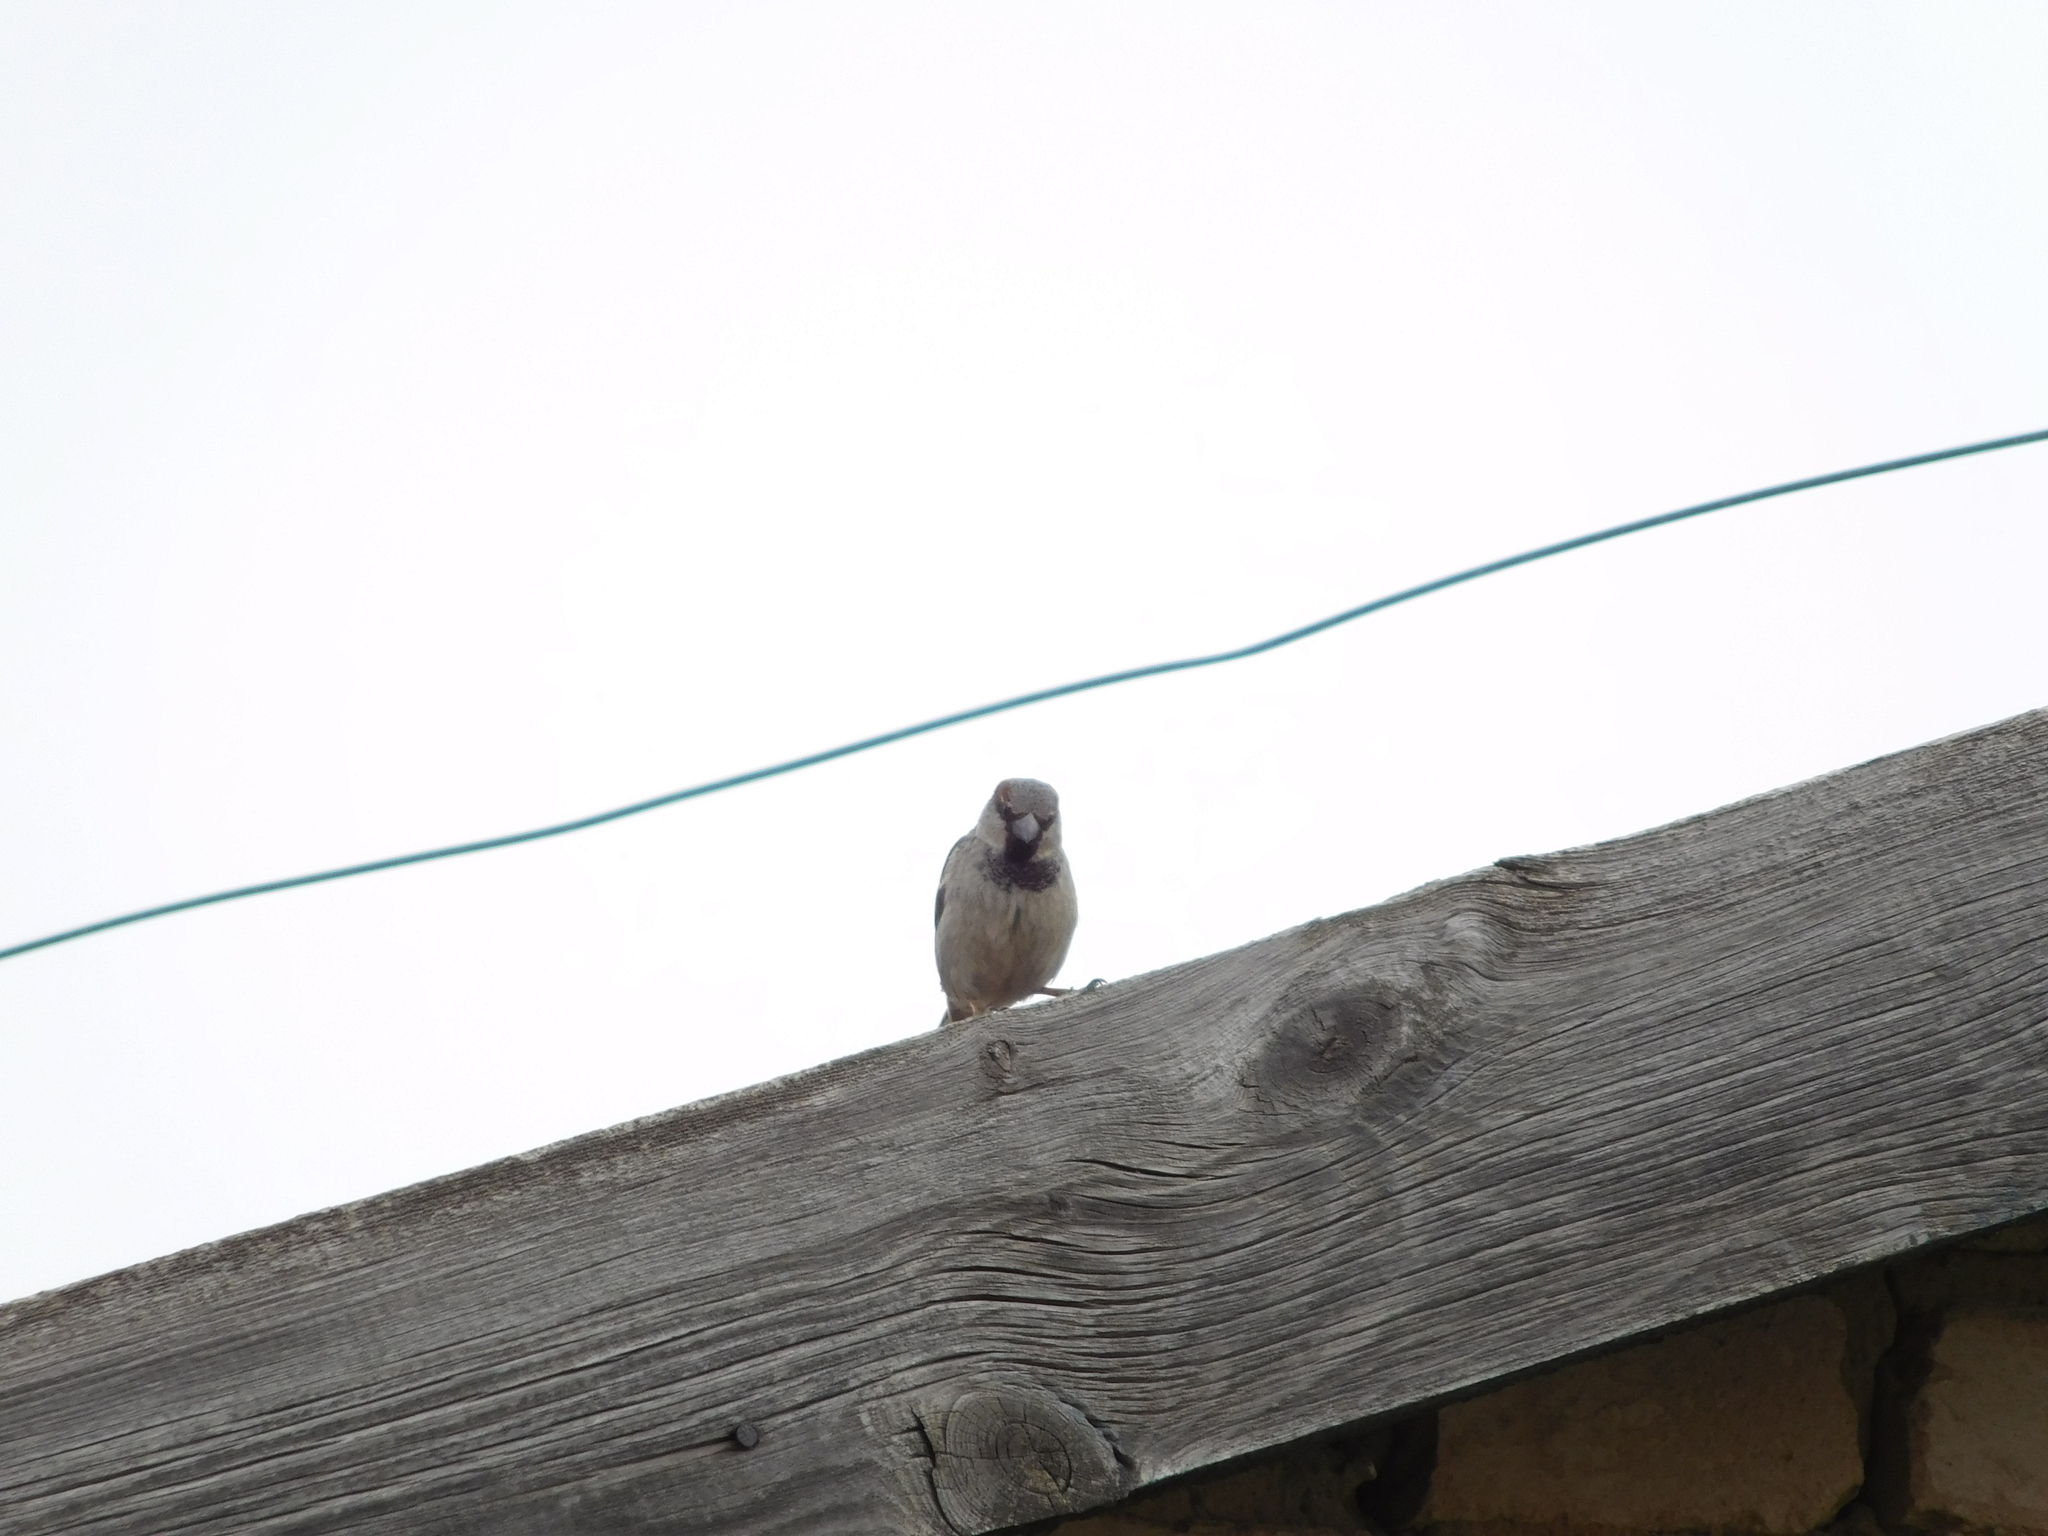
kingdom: Animalia
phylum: Chordata
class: Aves
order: Passeriformes
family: Passeridae
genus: Passer
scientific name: Passer domesticus
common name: House sparrow
